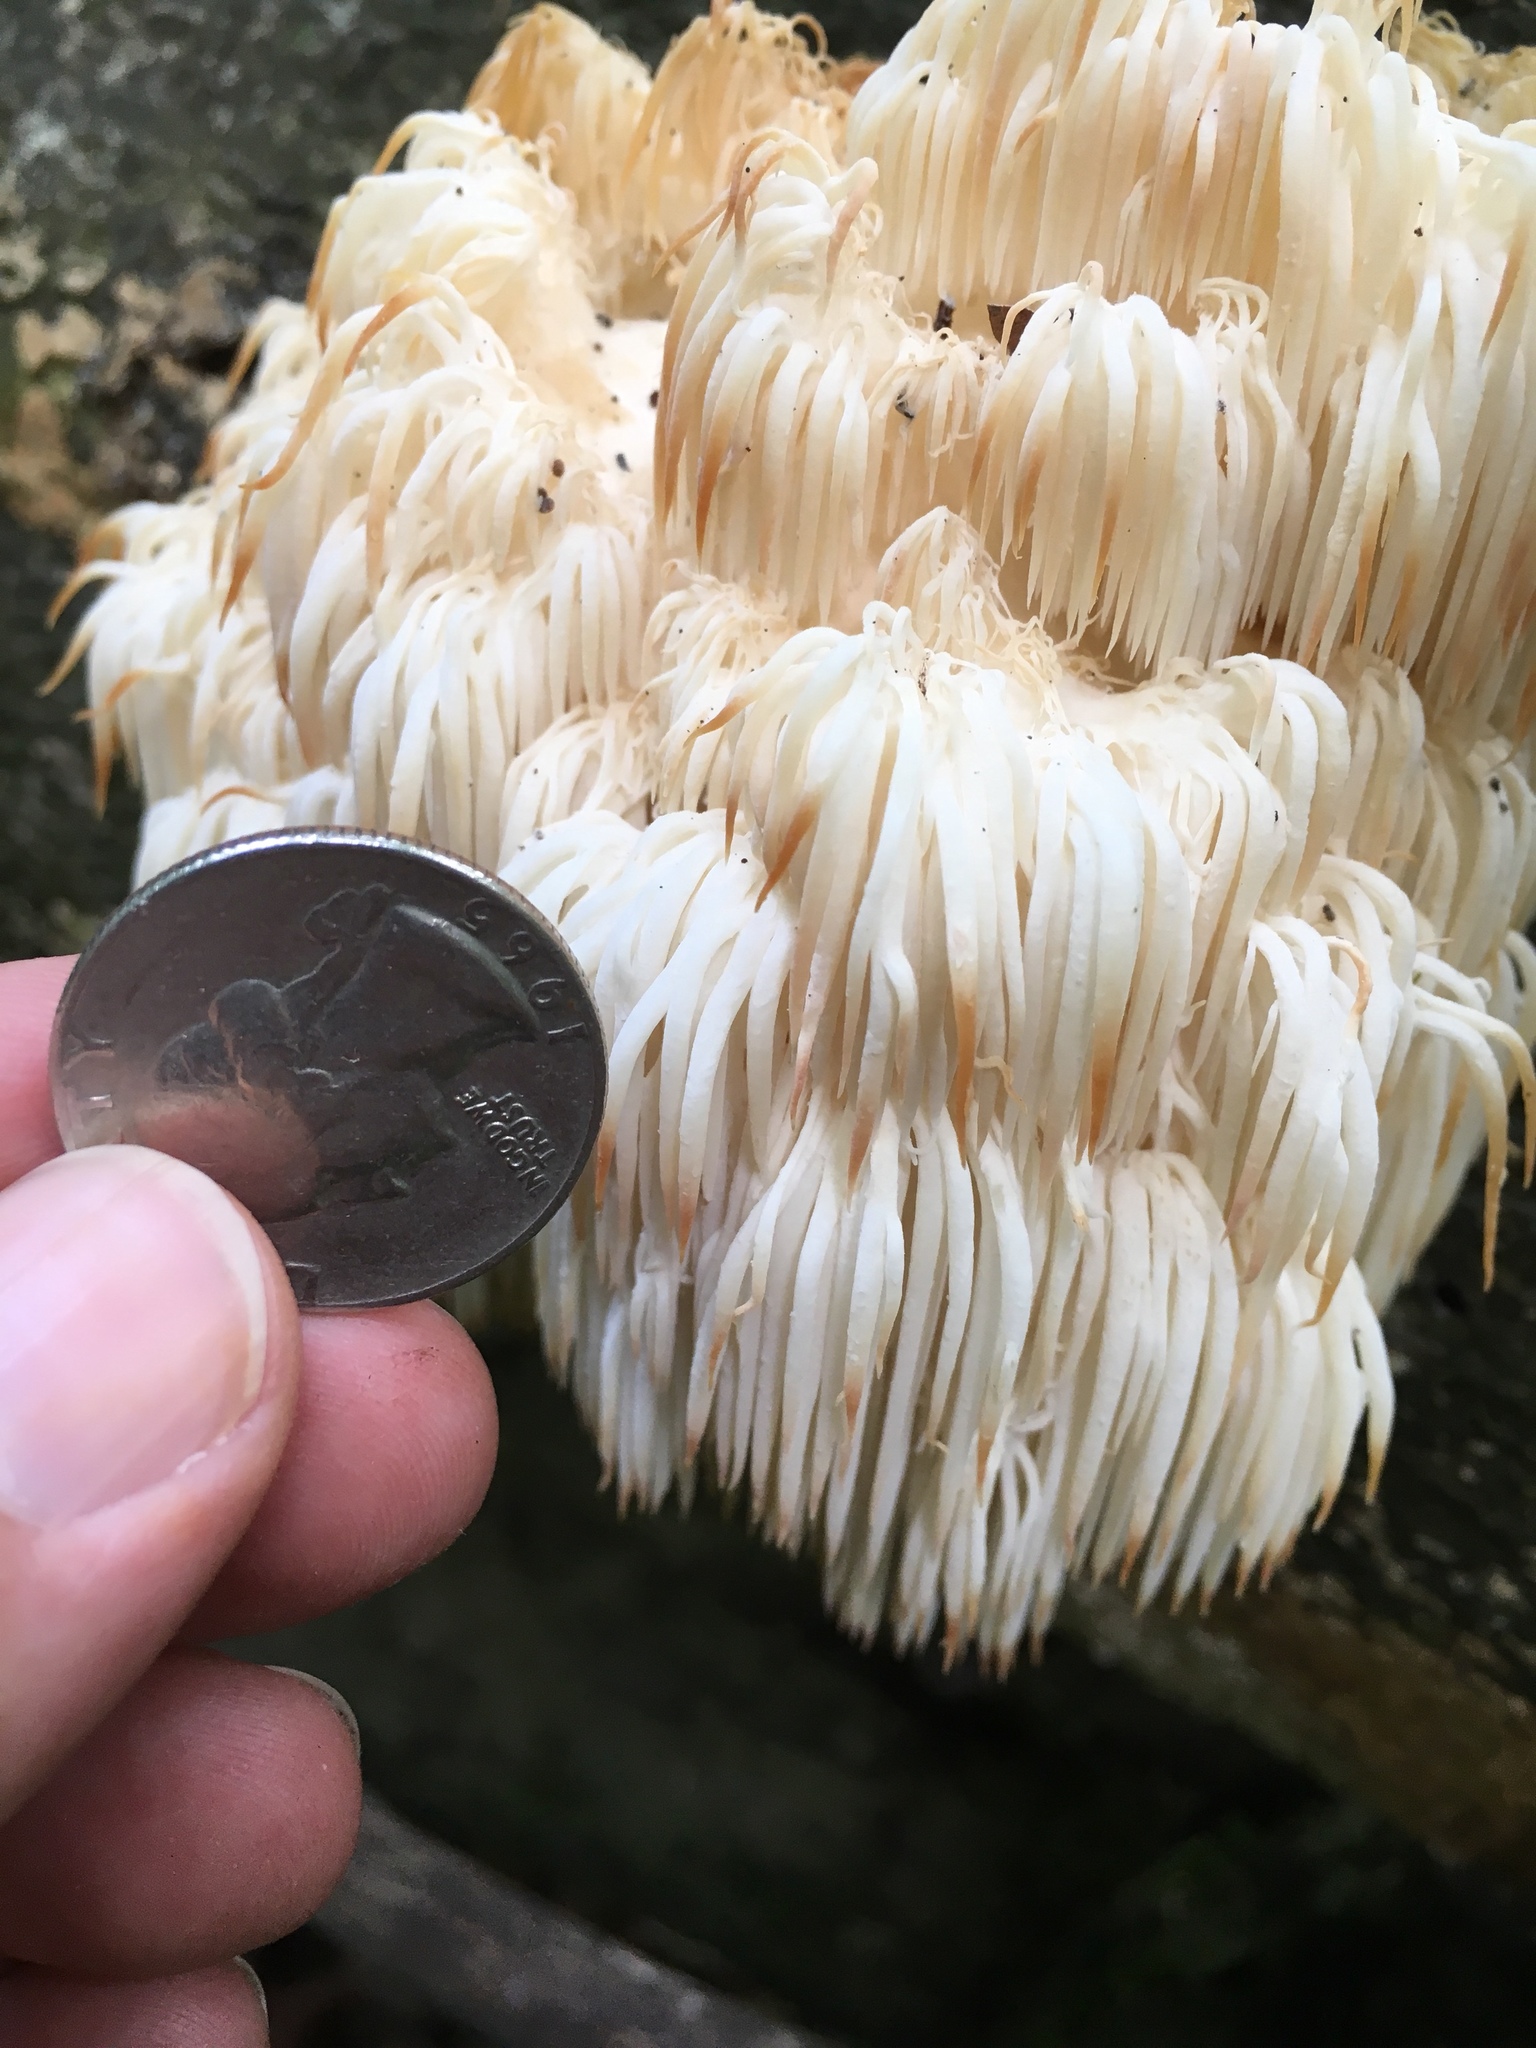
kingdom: Fungi
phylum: Basidiomycota
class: Agaricomycetes
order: Russulales
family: Hericiaceae
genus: Hericium
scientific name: Hericium americanum
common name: Bear's head tooth
